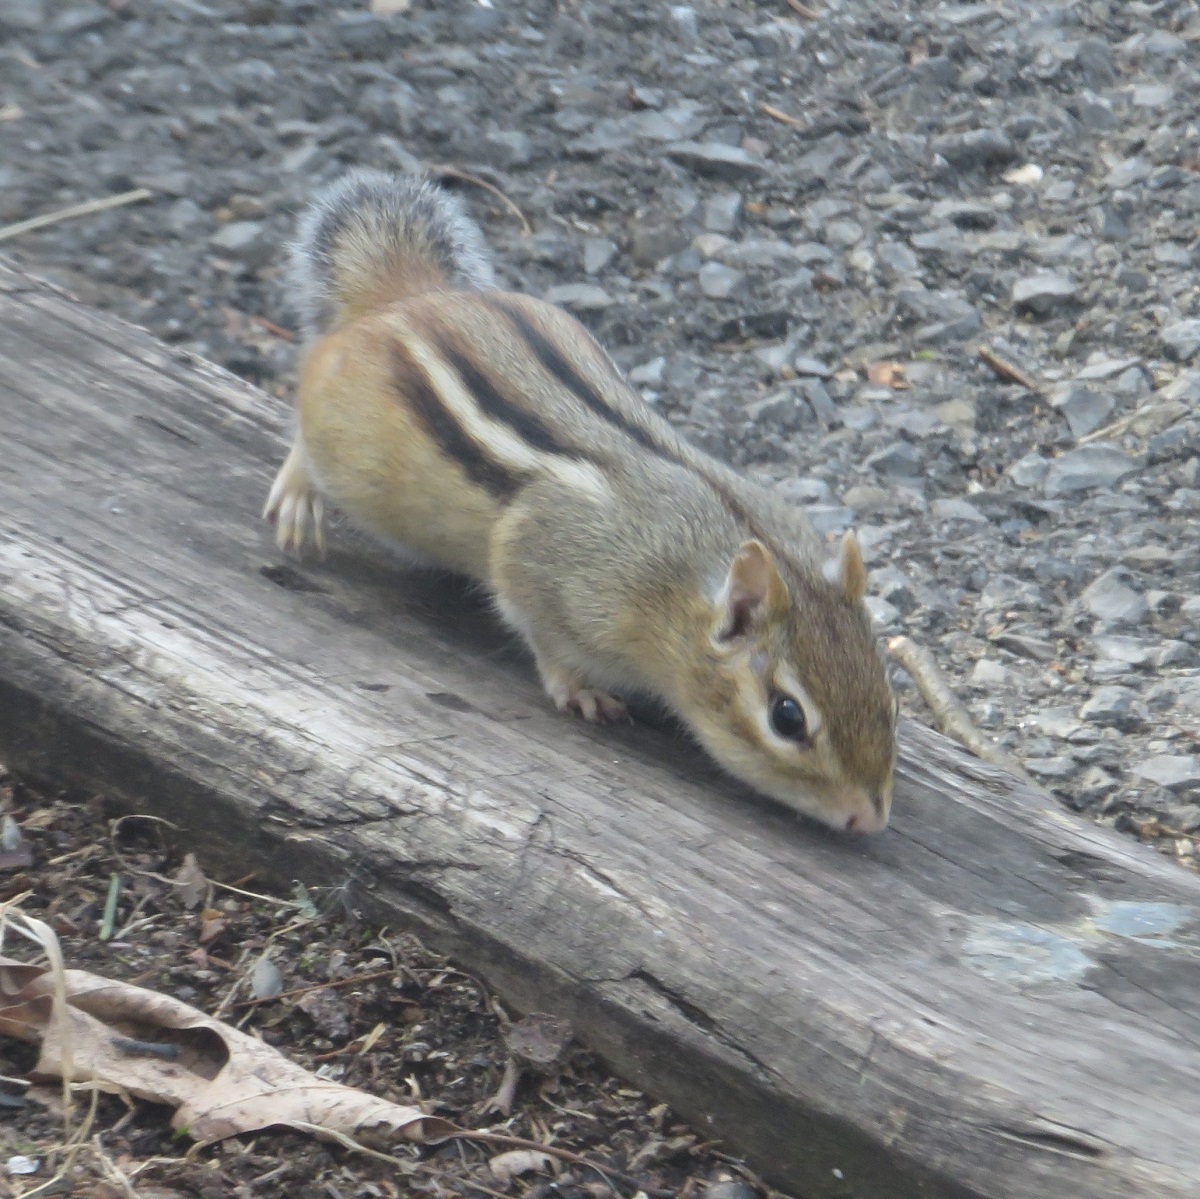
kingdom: Animalia
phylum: Chordata
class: Mammalia
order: Rodentia
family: Sciuridae
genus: Tamias
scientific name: Tamias striatus
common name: Eastern chipmunk
